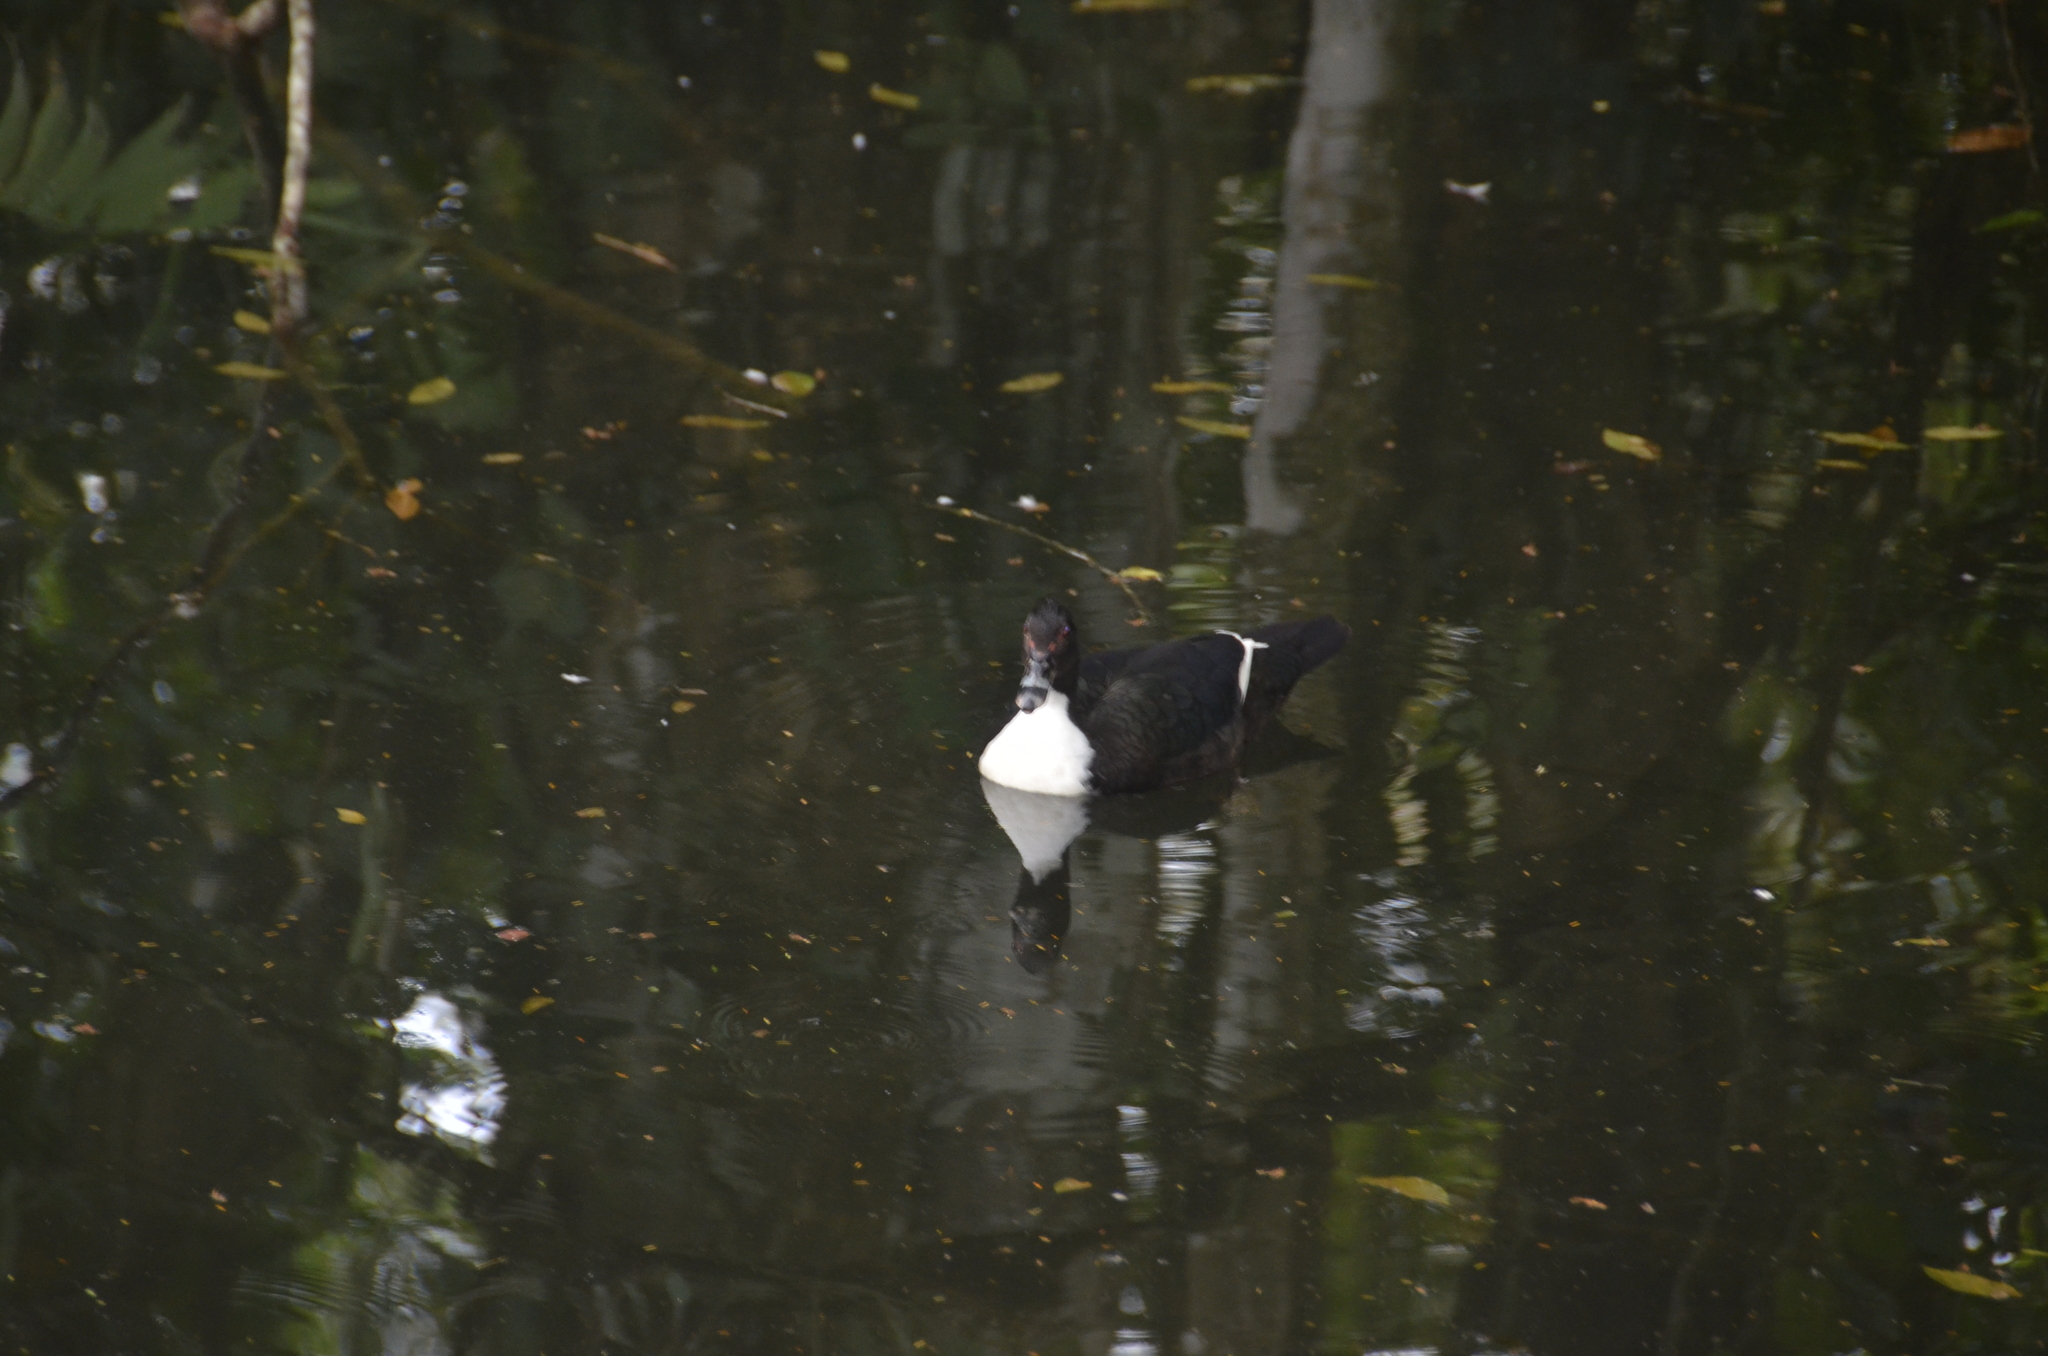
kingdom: Animalia
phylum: Chordata
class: Aves
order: Anseriformes
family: Anatidae
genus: Cairina
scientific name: Cairina moschata
